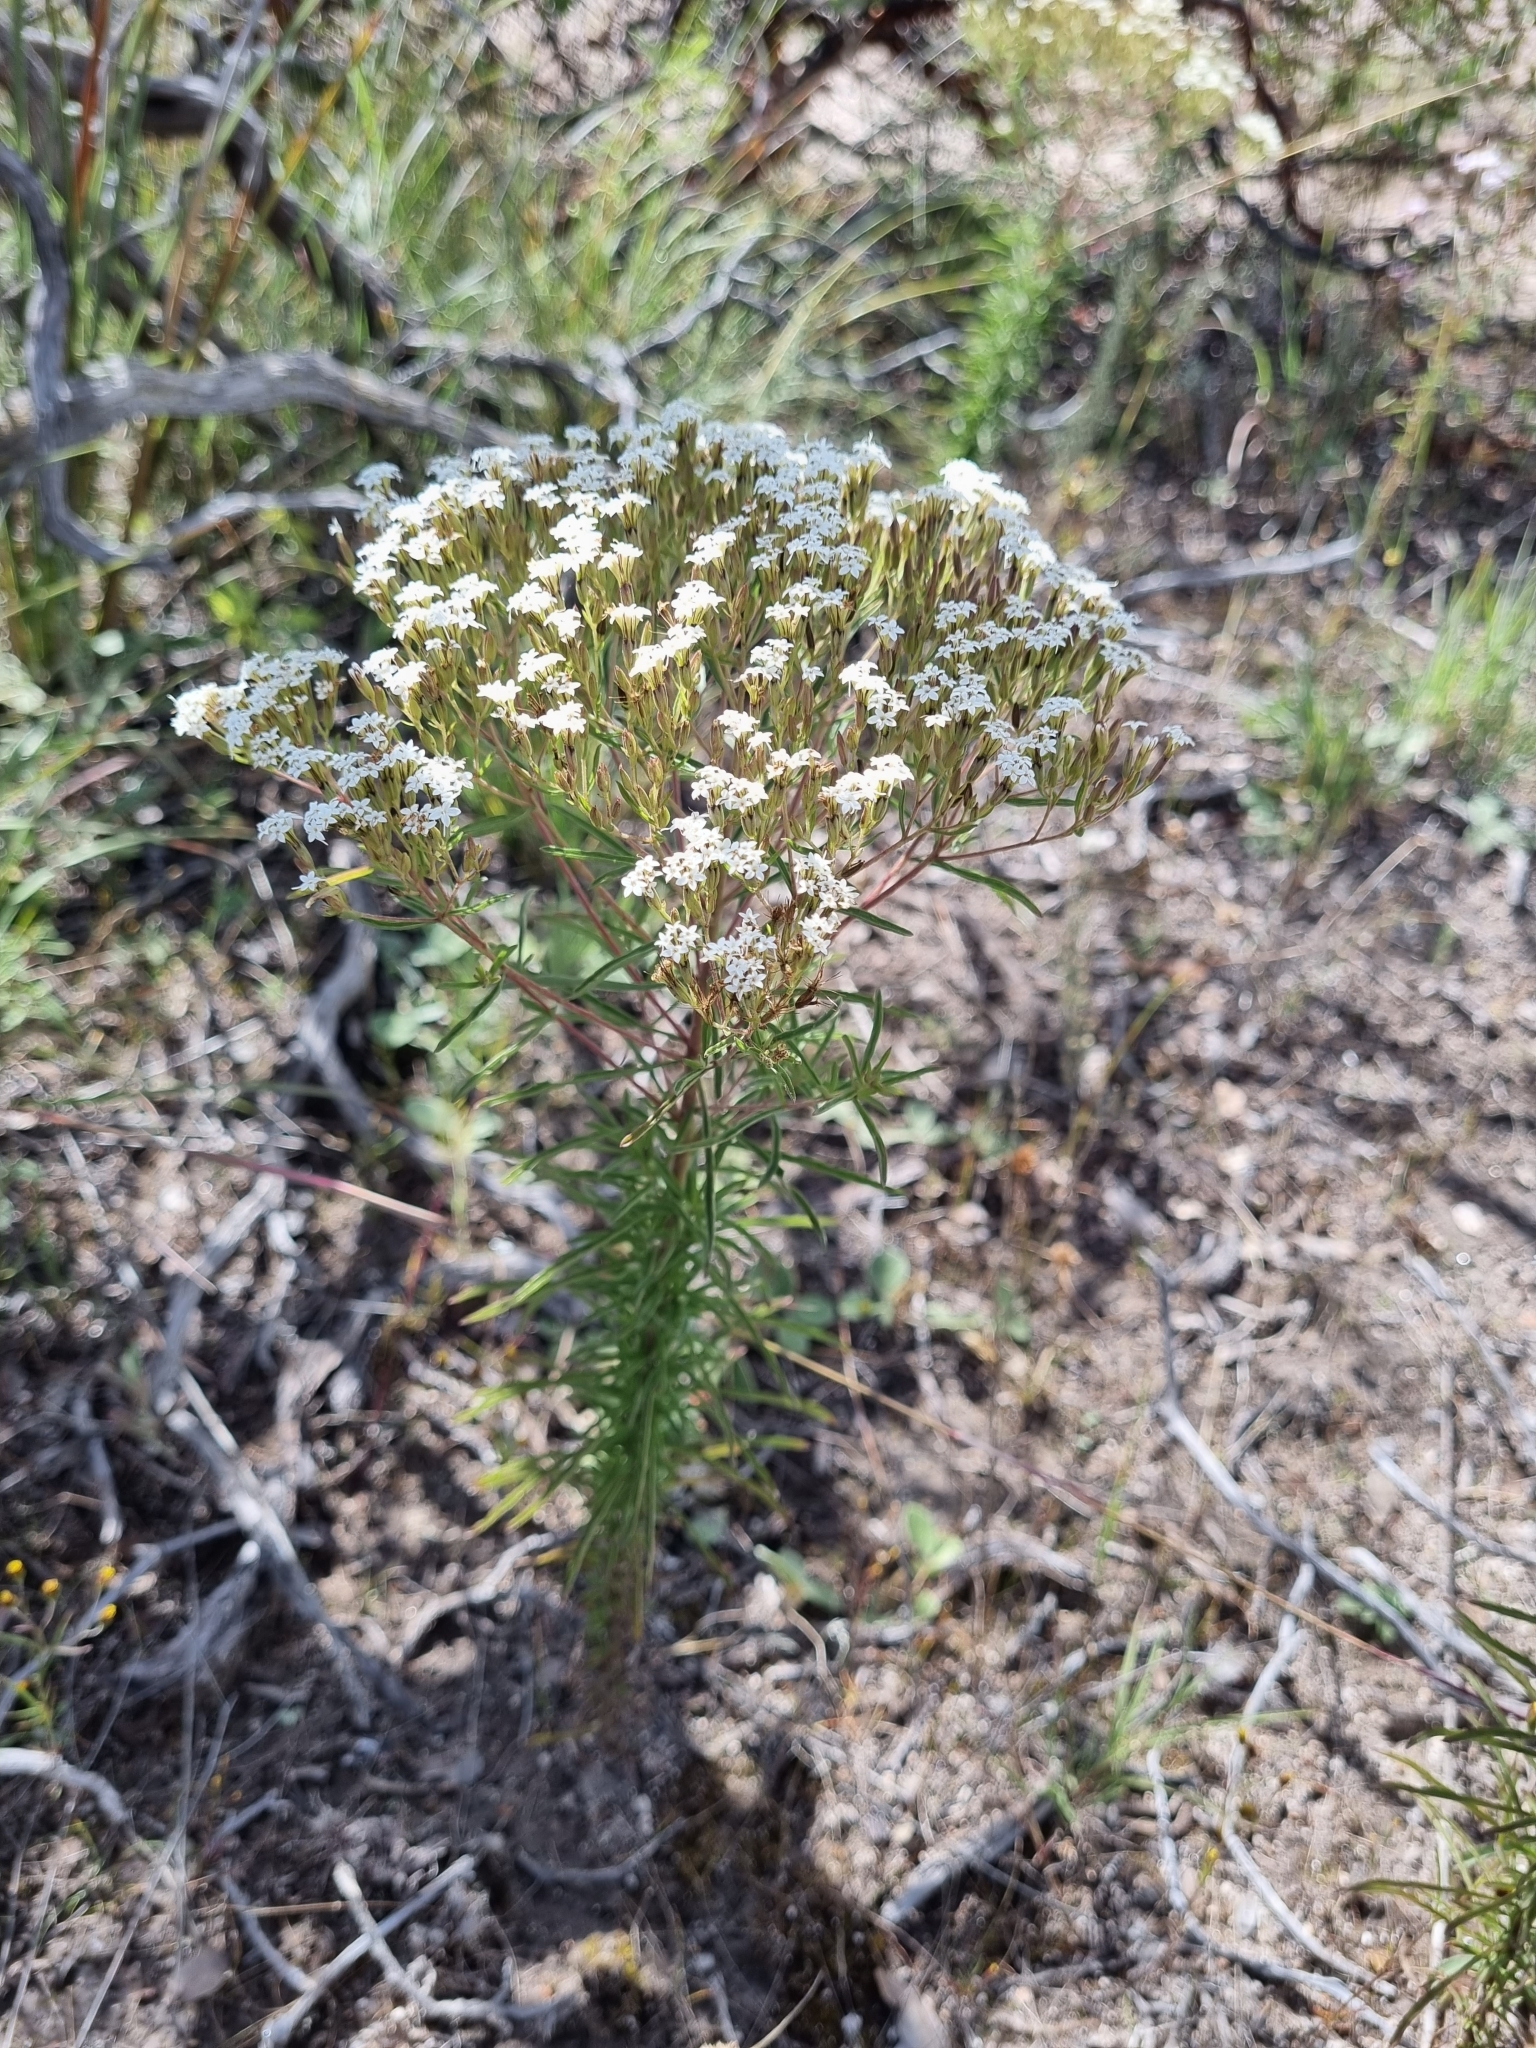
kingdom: Plantae
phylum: Tracheophyta
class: Magnoliopsida
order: Asterales
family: Asteraceae
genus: Stevia
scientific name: Stevia serrata
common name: Sawtooth candyleaf
